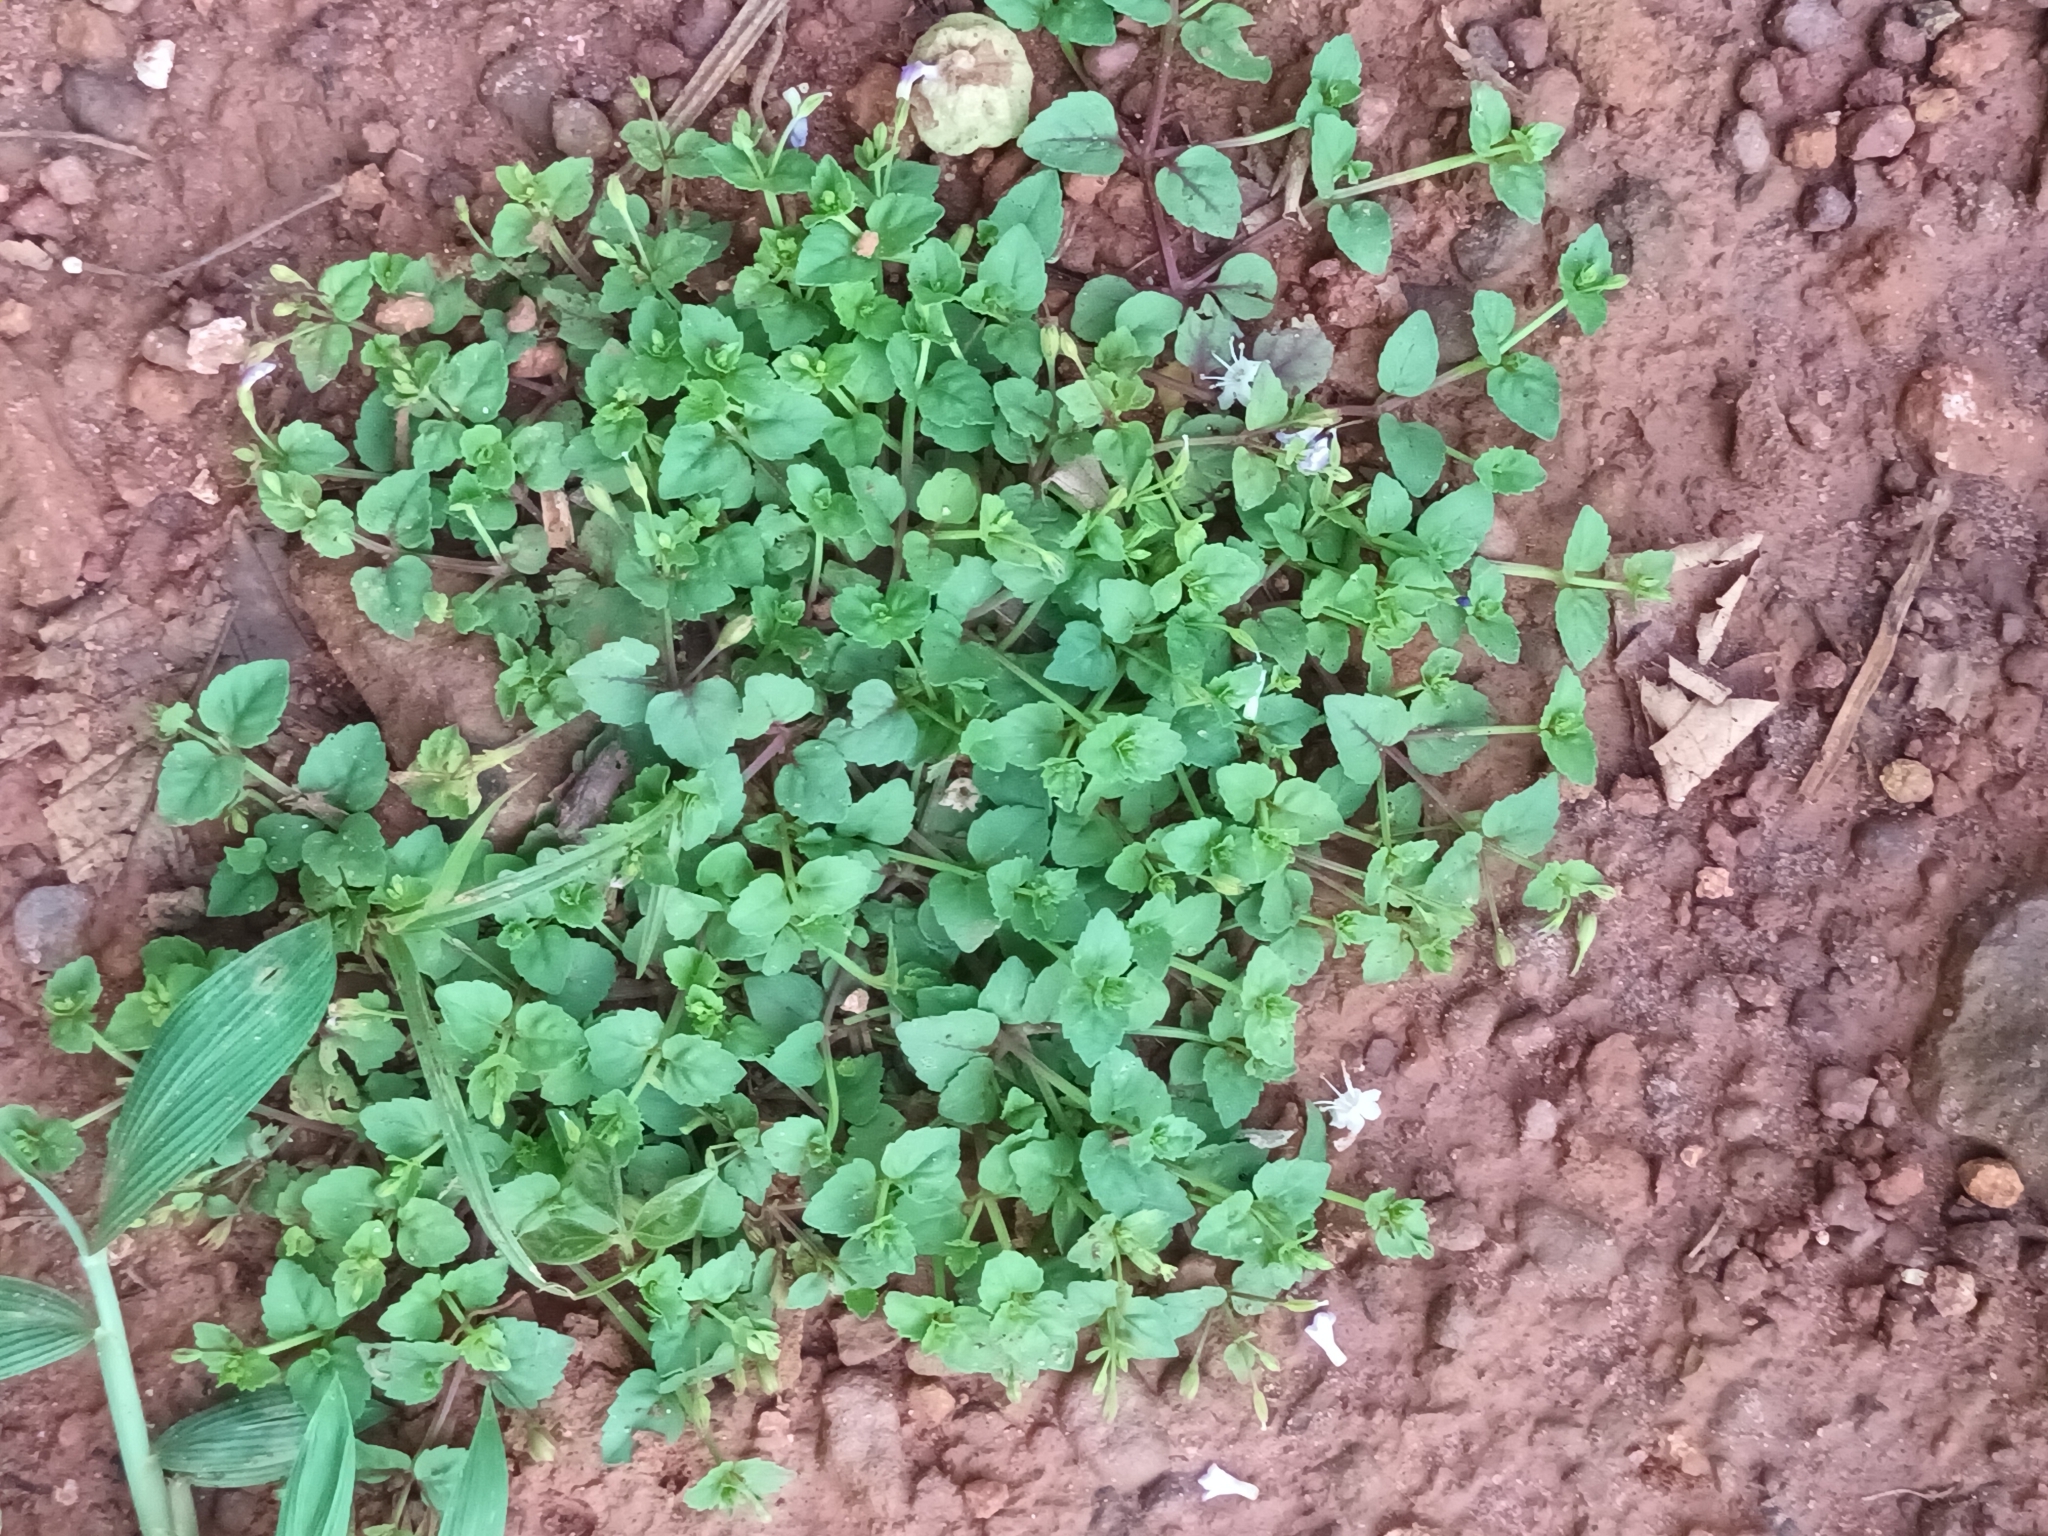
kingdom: Plantae
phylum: Tracheophyta
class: Magnoliopsida
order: Lamiales
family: Linderniaceae
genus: Torenia
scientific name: Torenia crustacea
